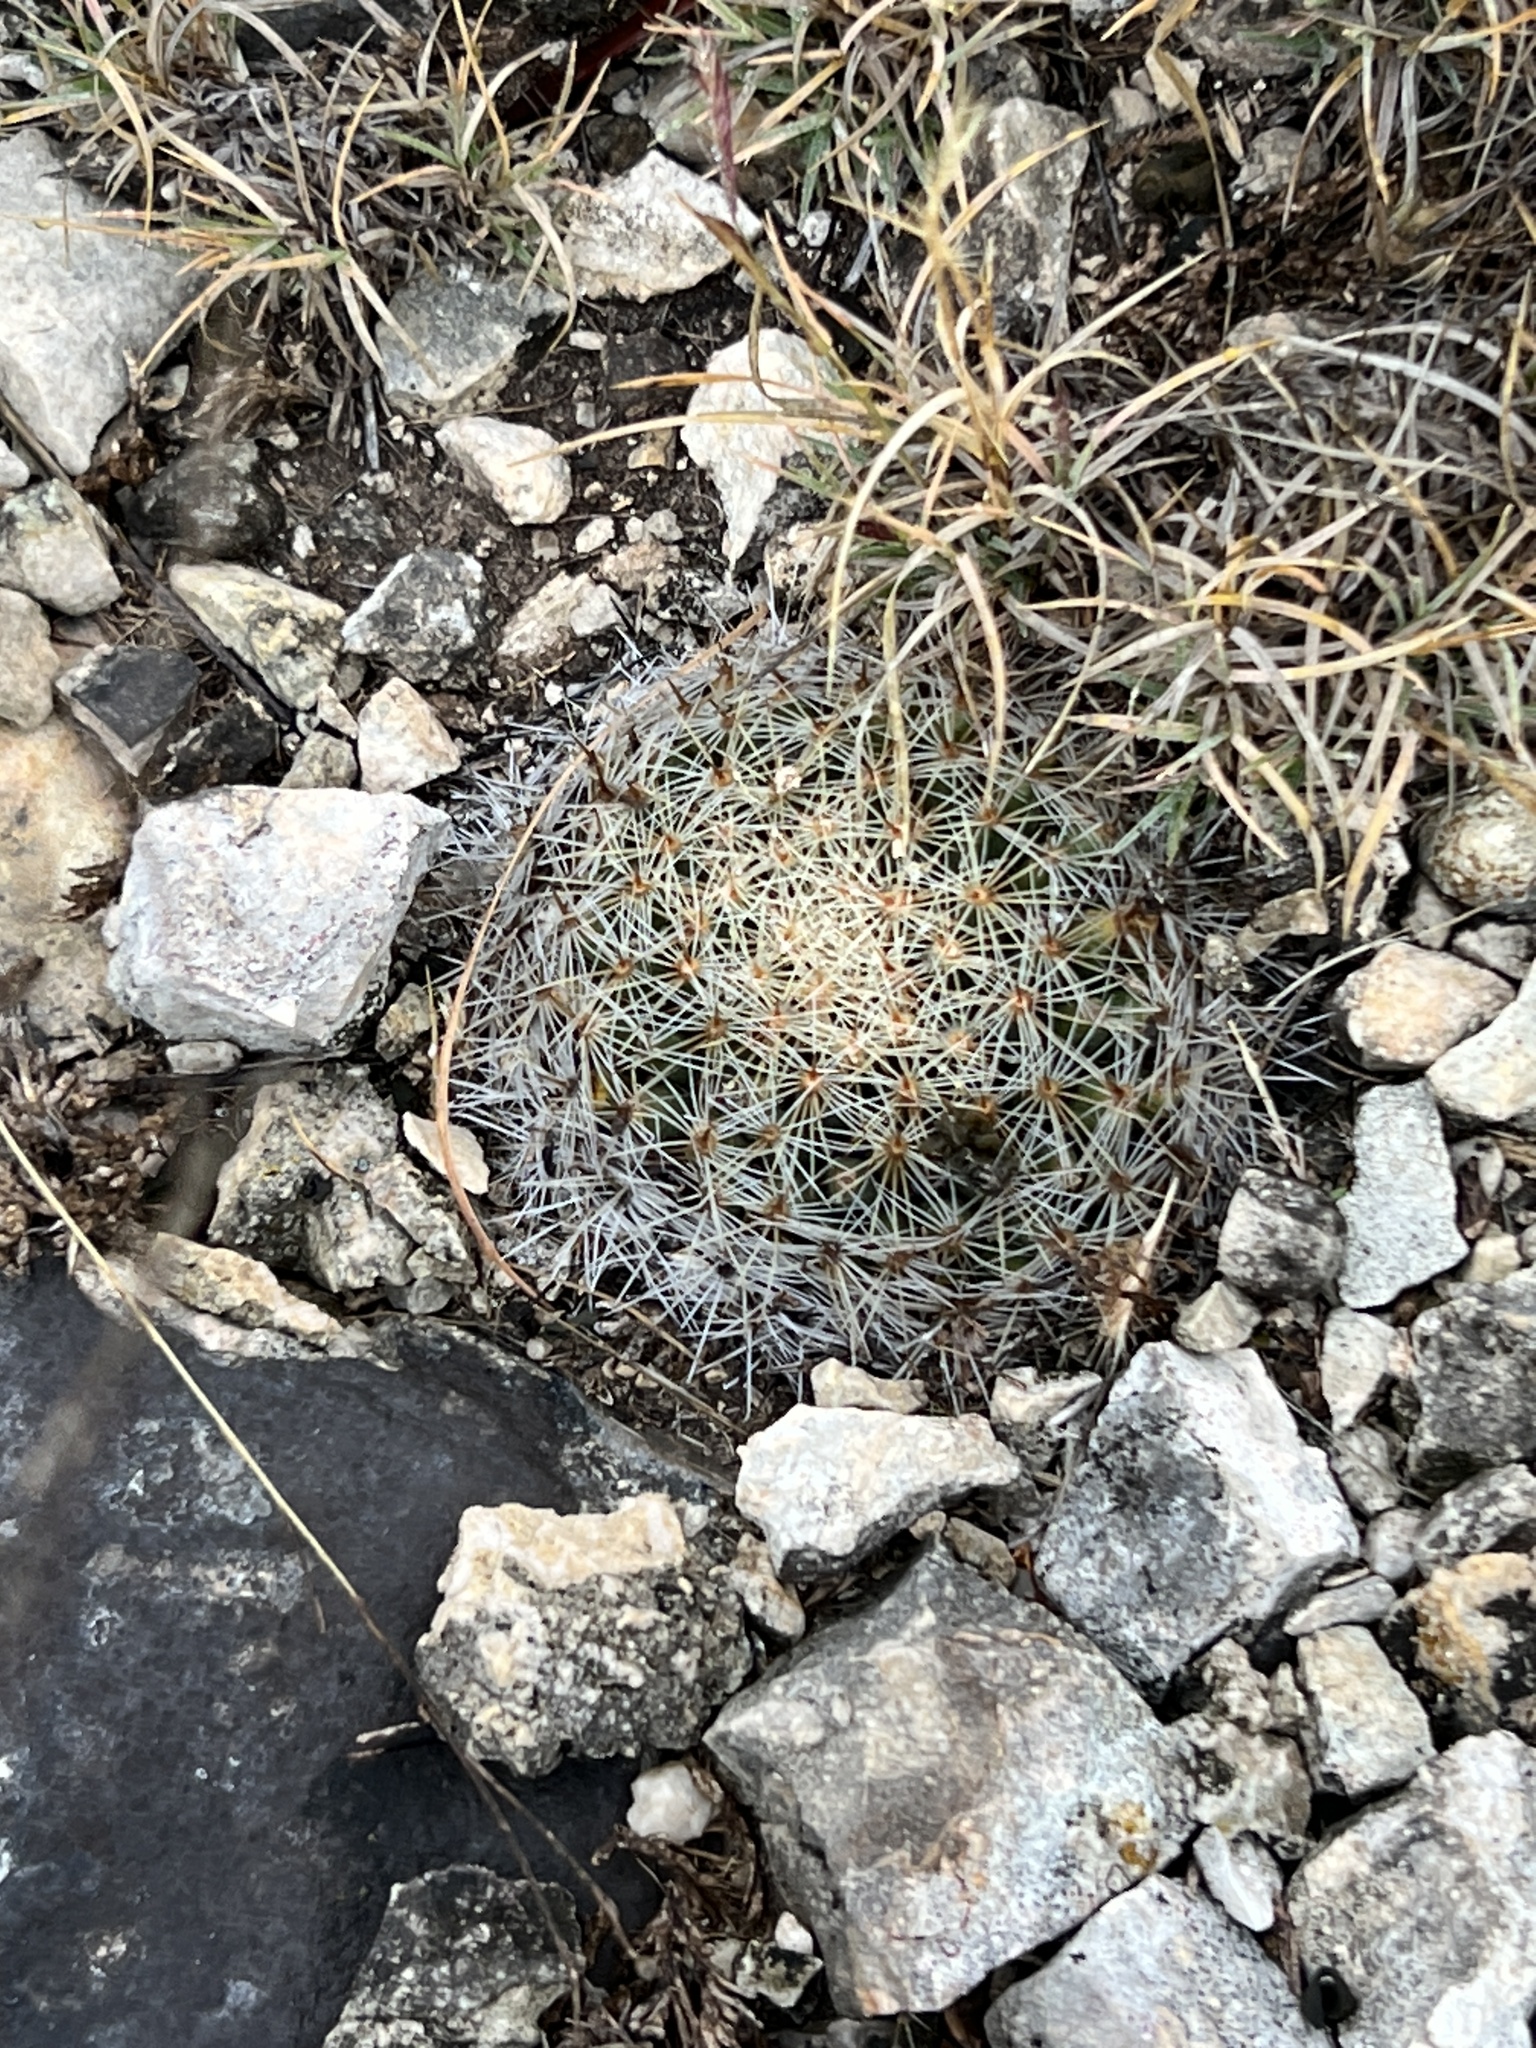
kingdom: Plantae
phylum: Tracheophyta
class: Magnoliopsida
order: Caryophyllales
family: Cactaceae
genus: Mammillaria
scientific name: Mammillaria heyderi
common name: Little nipple cactus
